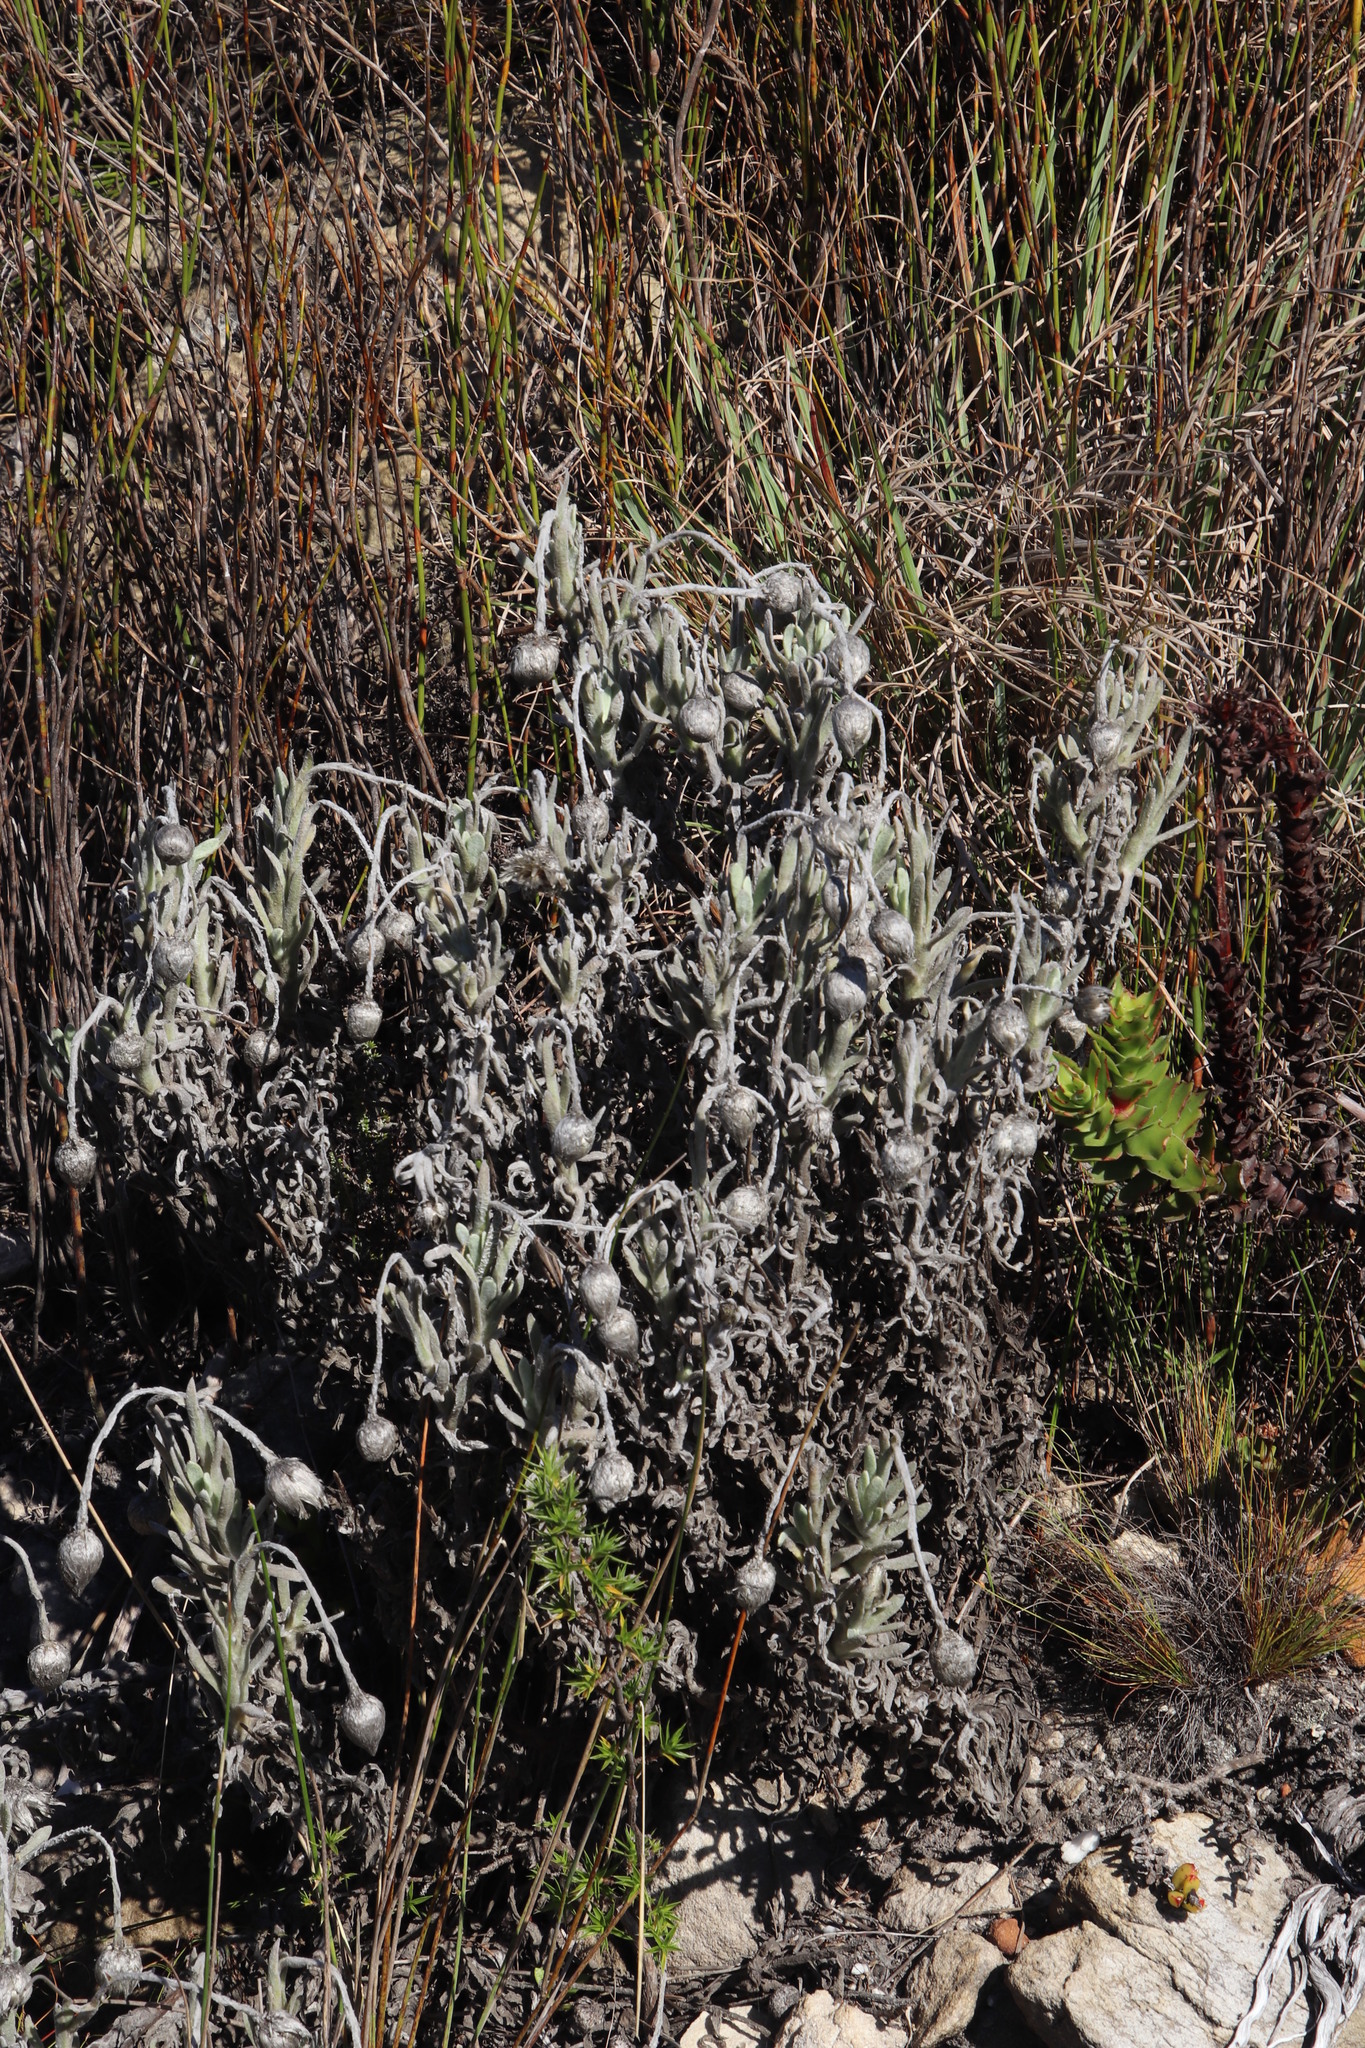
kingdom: Plantae
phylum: Tracheophyta
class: Magnoliopsida
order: Asterales
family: Asteraceae
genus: Syncarpha
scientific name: Syncarpha vestita
